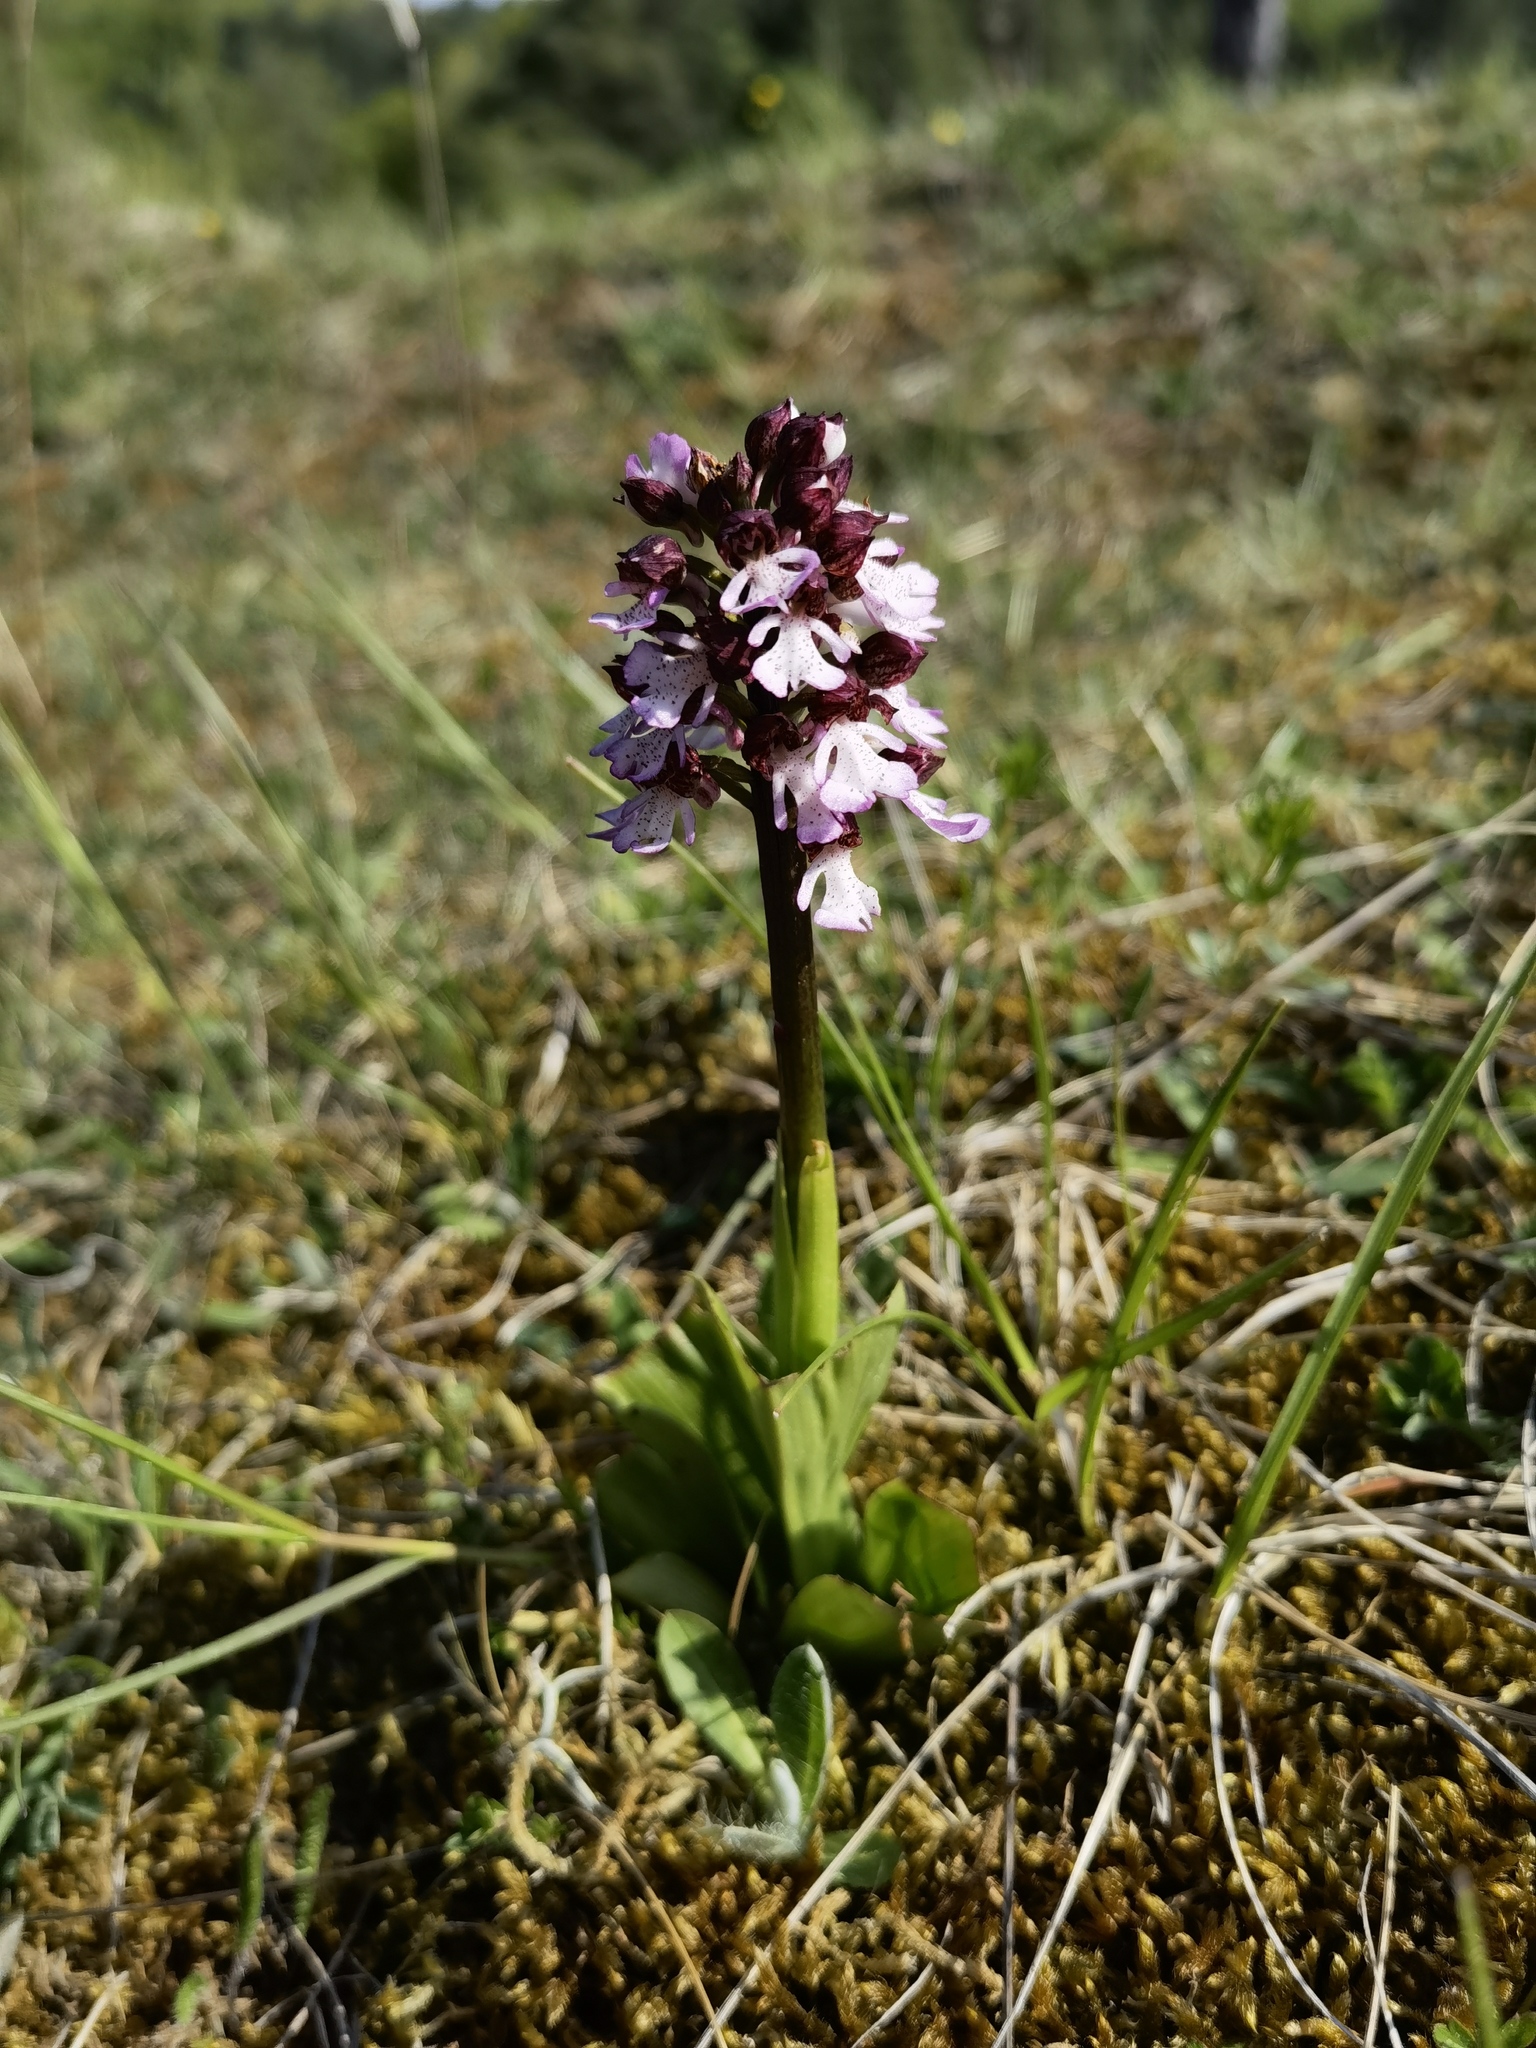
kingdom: Plantae
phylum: Tracheophyta
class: Liliopsida
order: Asparagales
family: Orchidaceae
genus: Orchis
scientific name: Orchis purpurea
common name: Lady orchid
